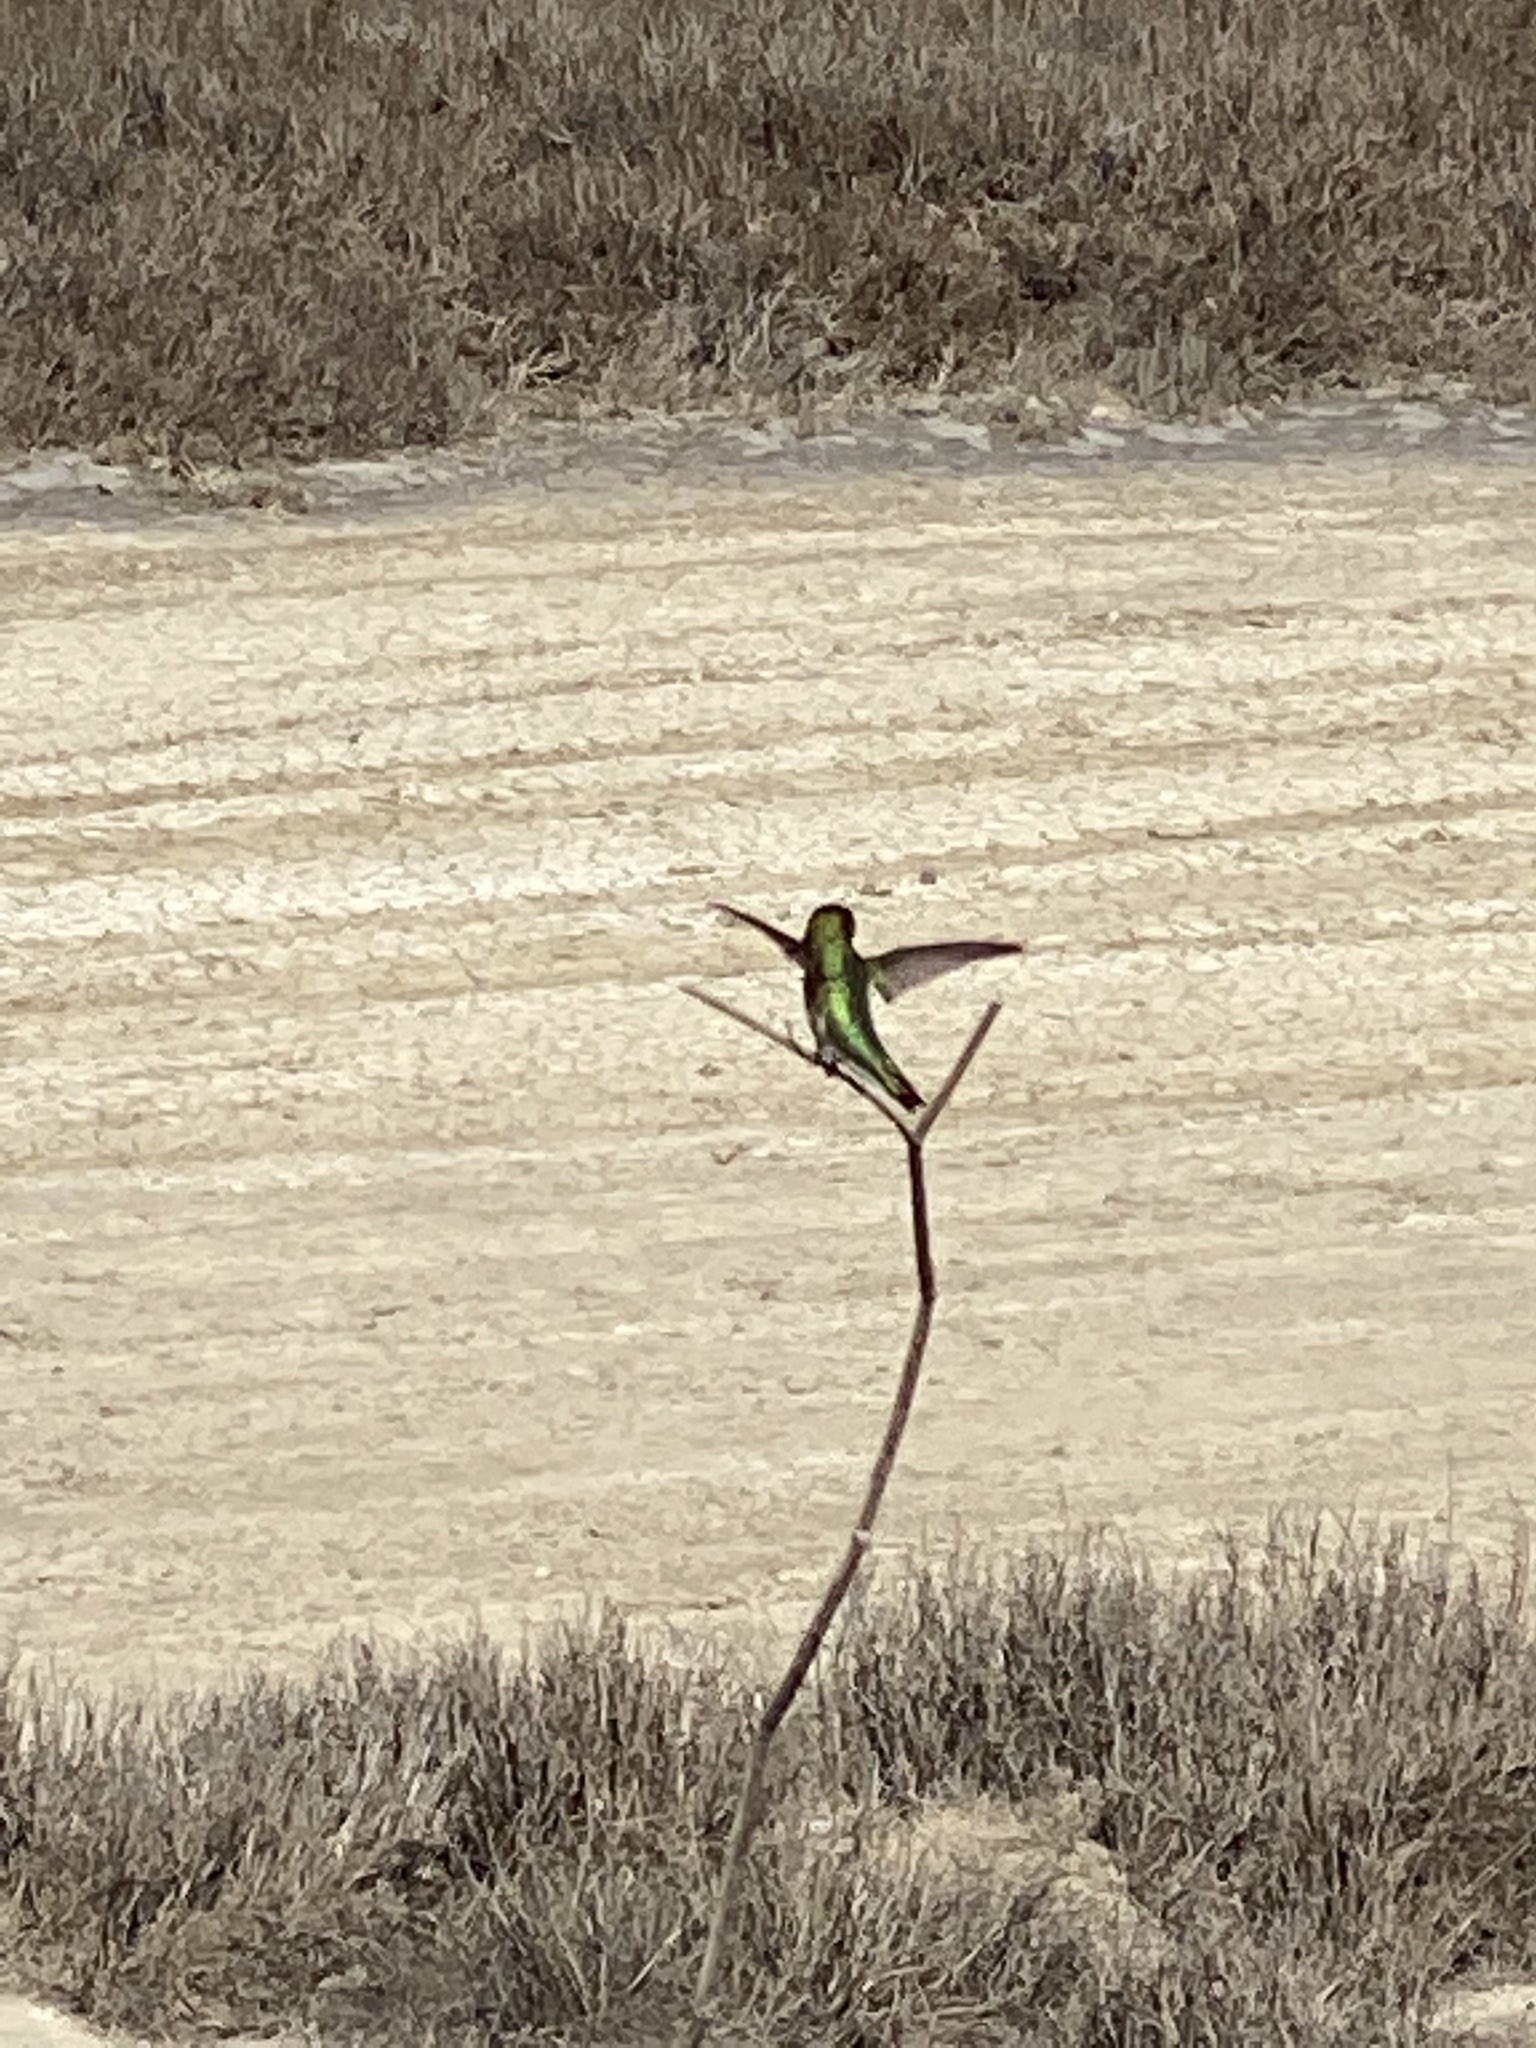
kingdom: Animalia
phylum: Chordata
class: Aves
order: Apodiformes
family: Trochilidae
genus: Calypte
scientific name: Calypte anna
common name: Anna's hummingbird
